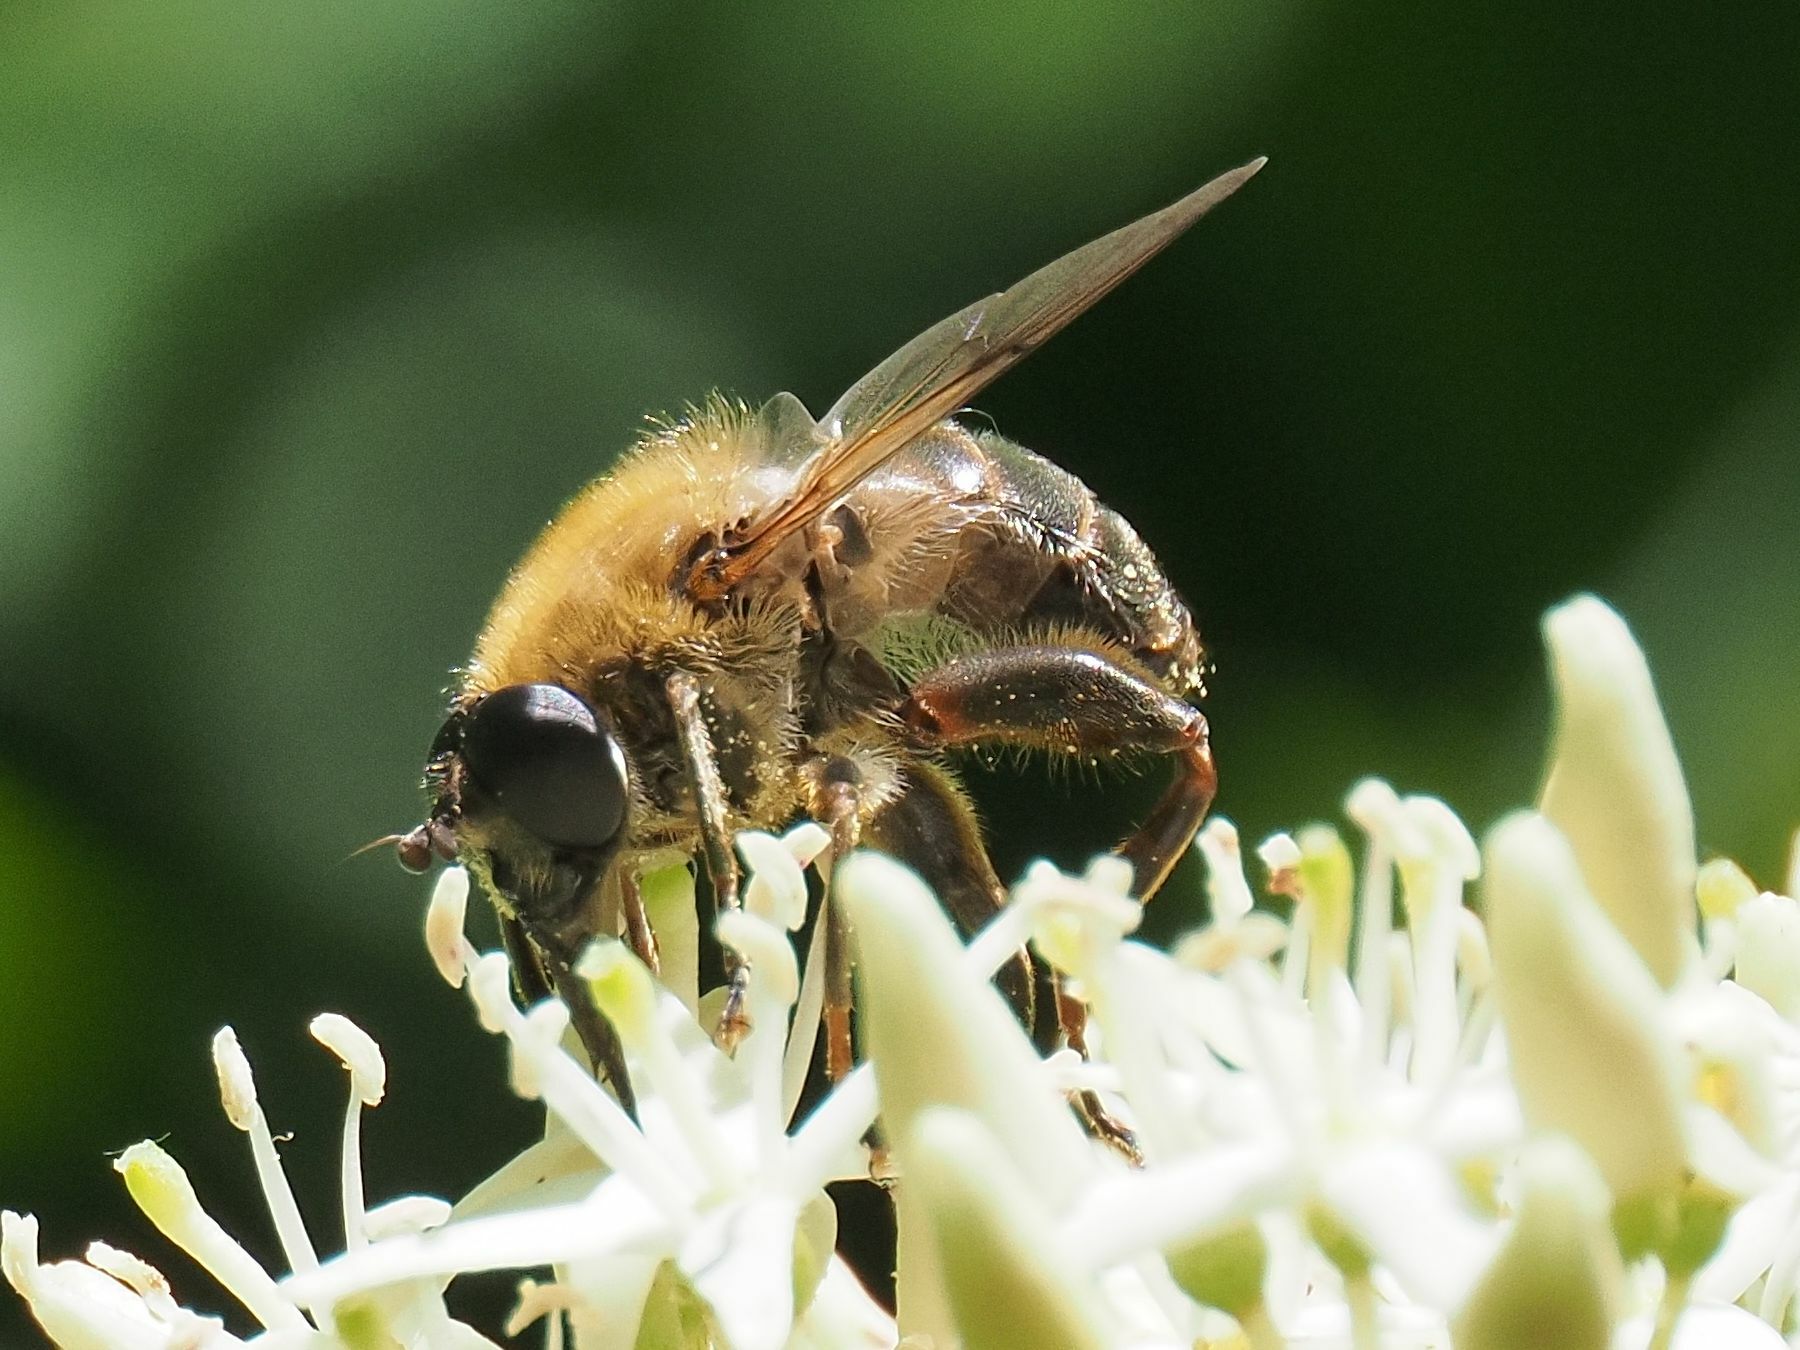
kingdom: Animalia
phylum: Arthropoda
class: Insecta
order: Diptera
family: Syrphidae
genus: Mallota
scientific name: Mallota cimbiciformis
